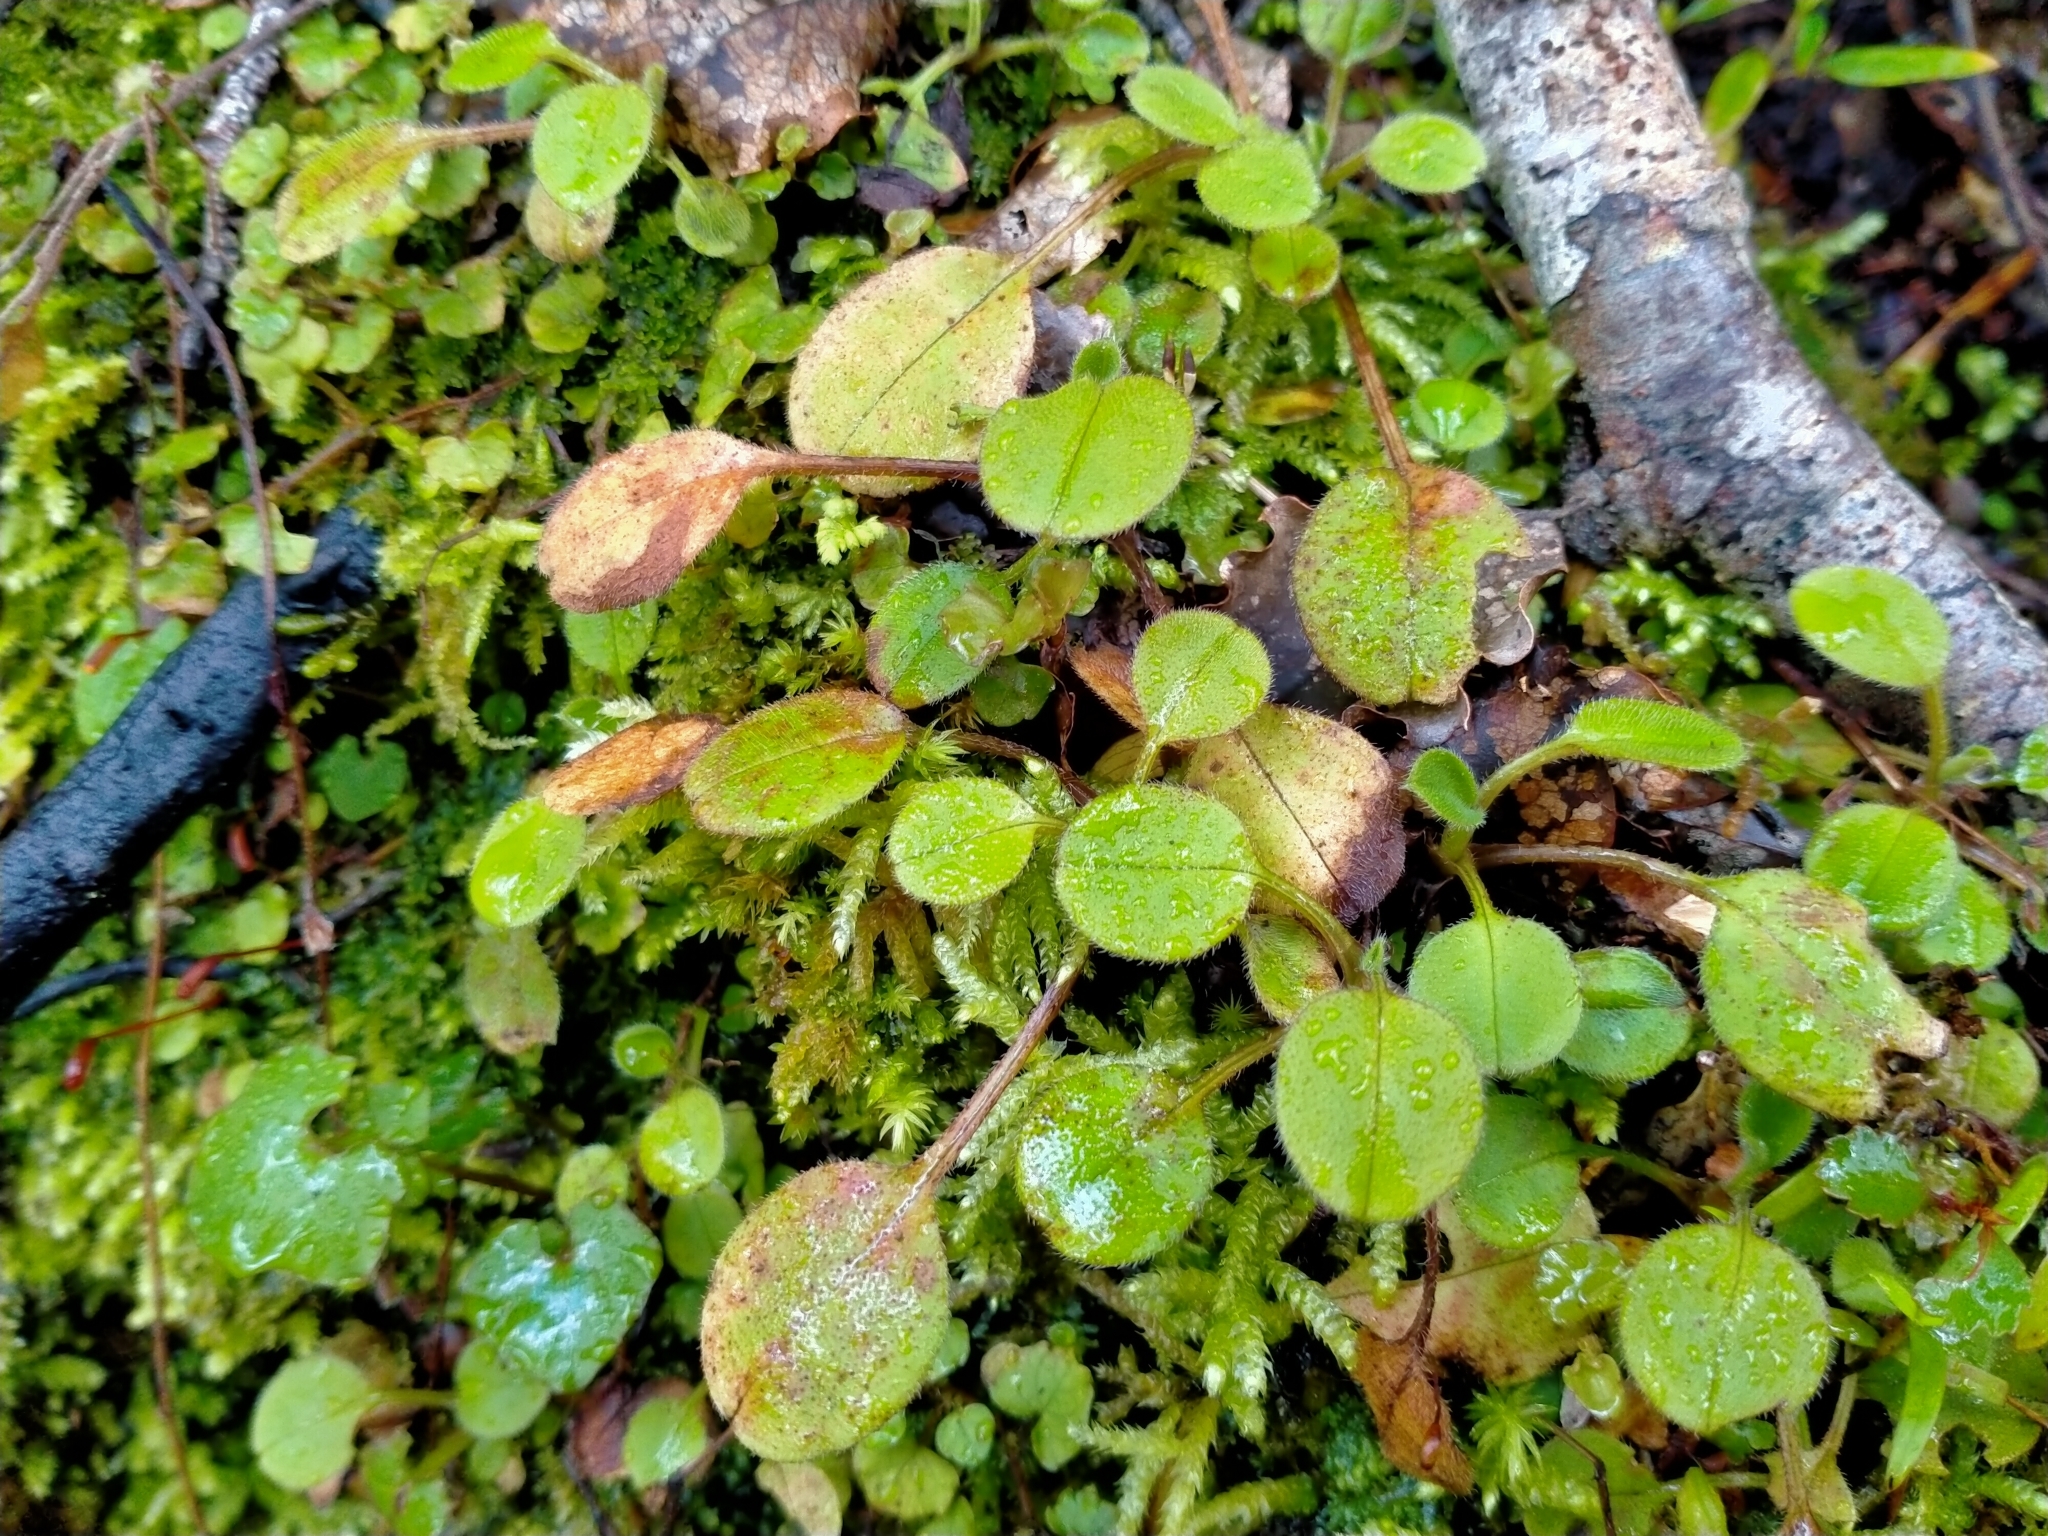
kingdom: Plantae
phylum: Tracheophyta
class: Magnoliopsida
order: Boraginales
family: Boraginaceae
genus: Myosotis
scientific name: Myosotis forsteri
